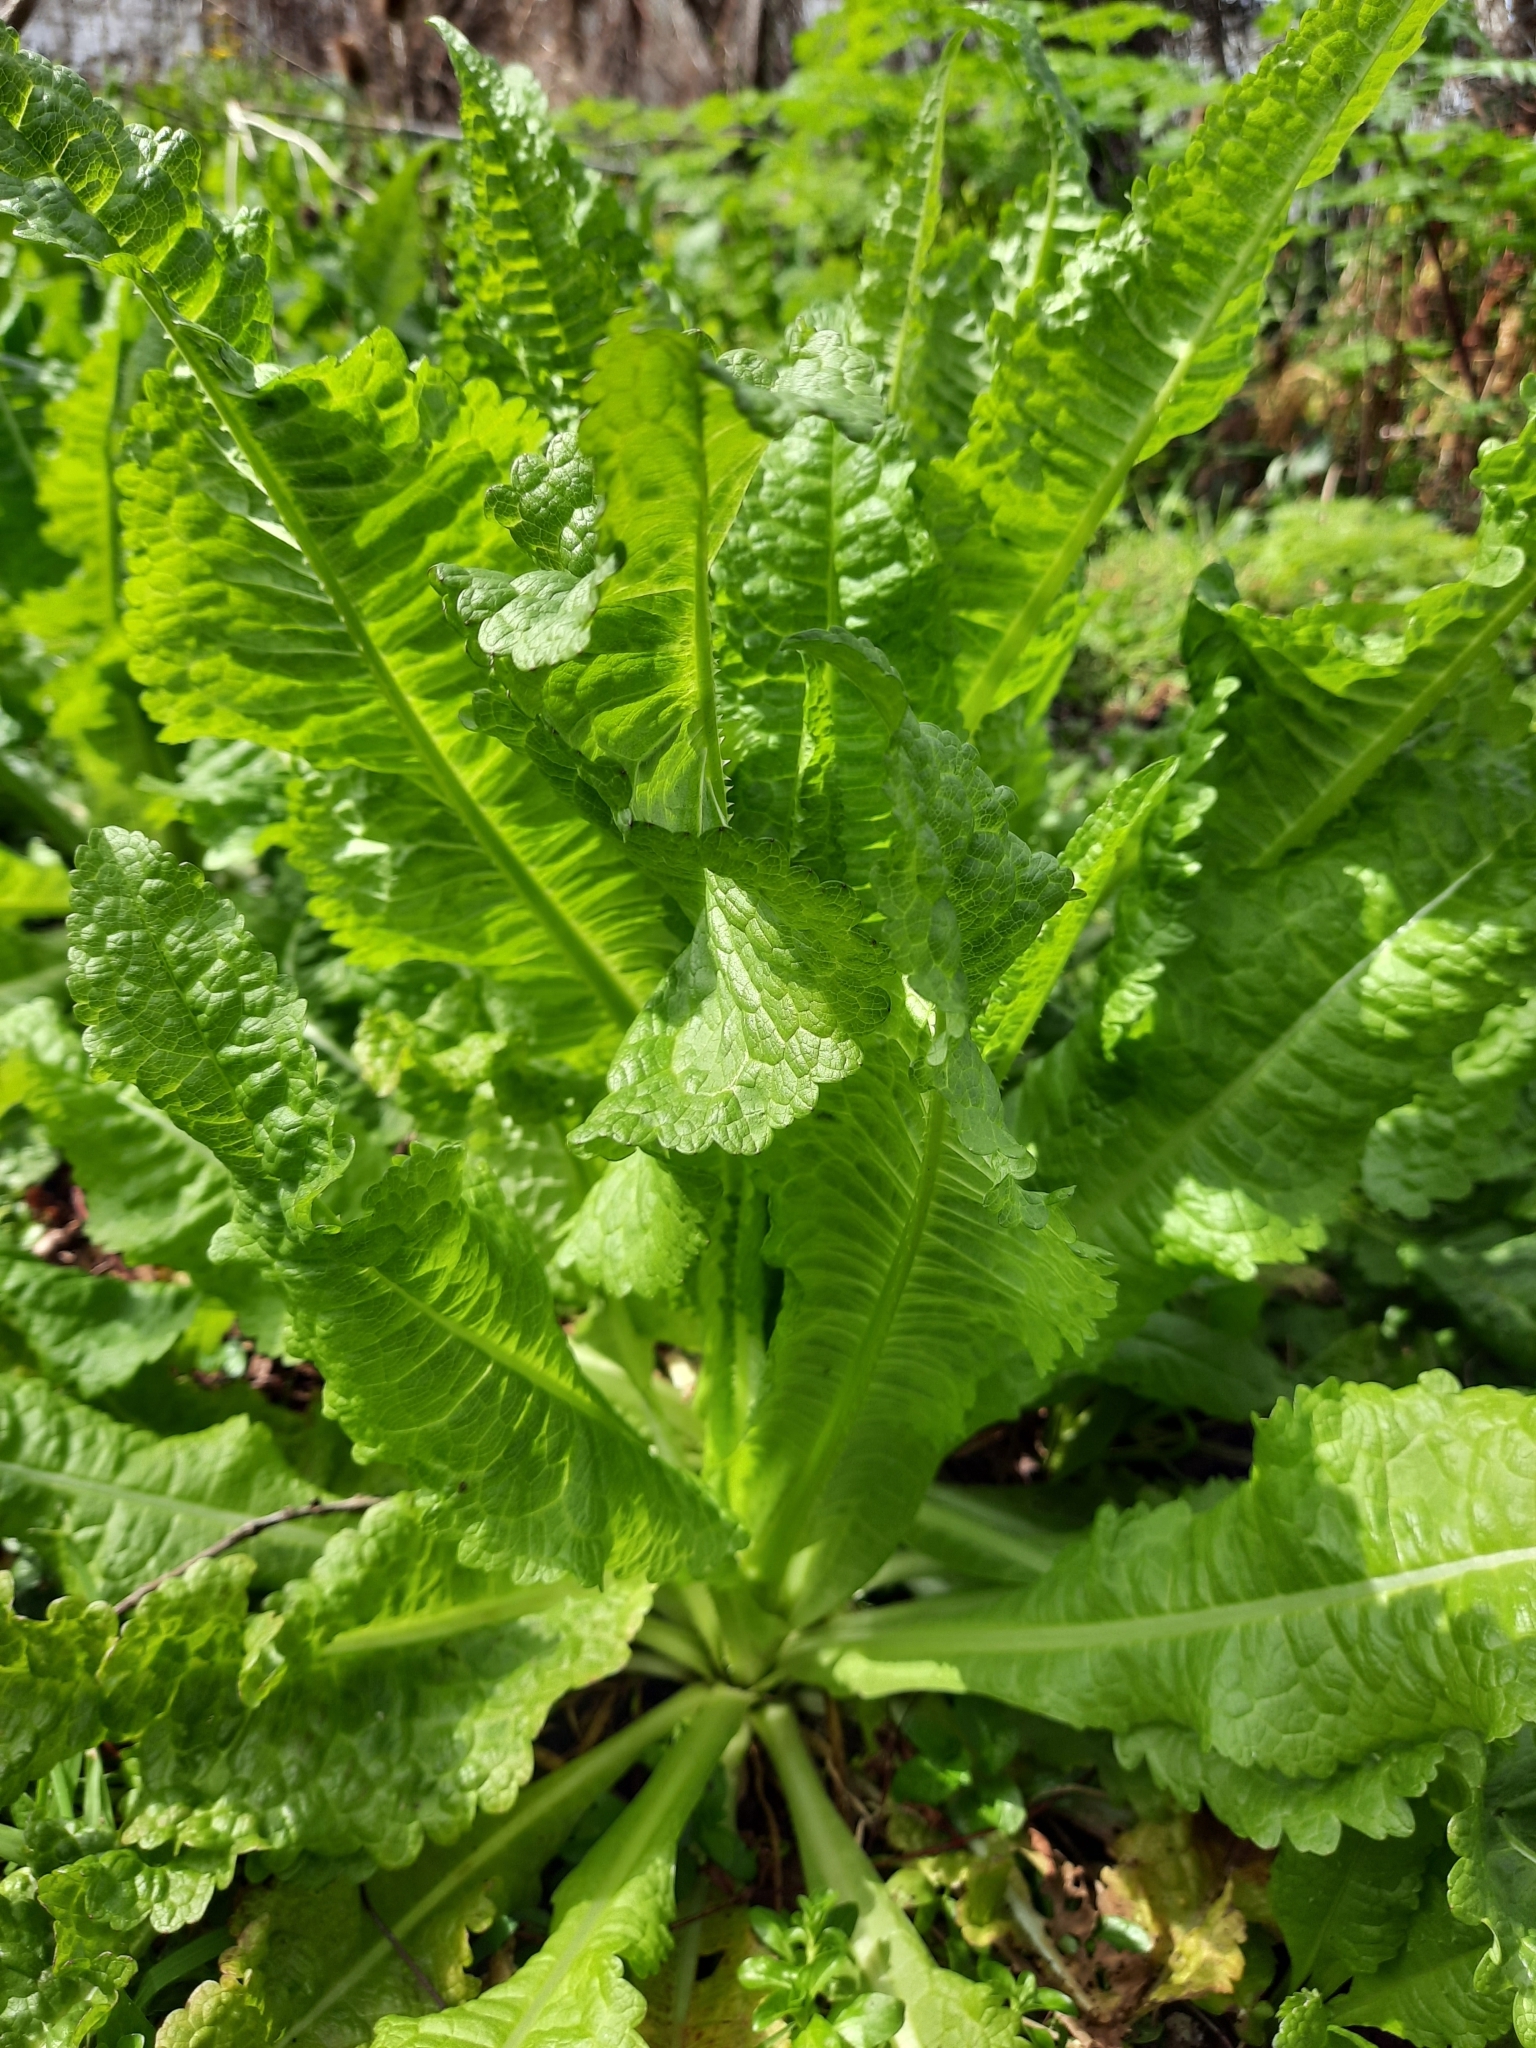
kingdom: Plantae
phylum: Tracheophyta
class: Magnoliopsida
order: Dipsacales
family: Caprifoliaceae
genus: Dipsacus
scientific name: Dipsacus fullonum
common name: Teasel
